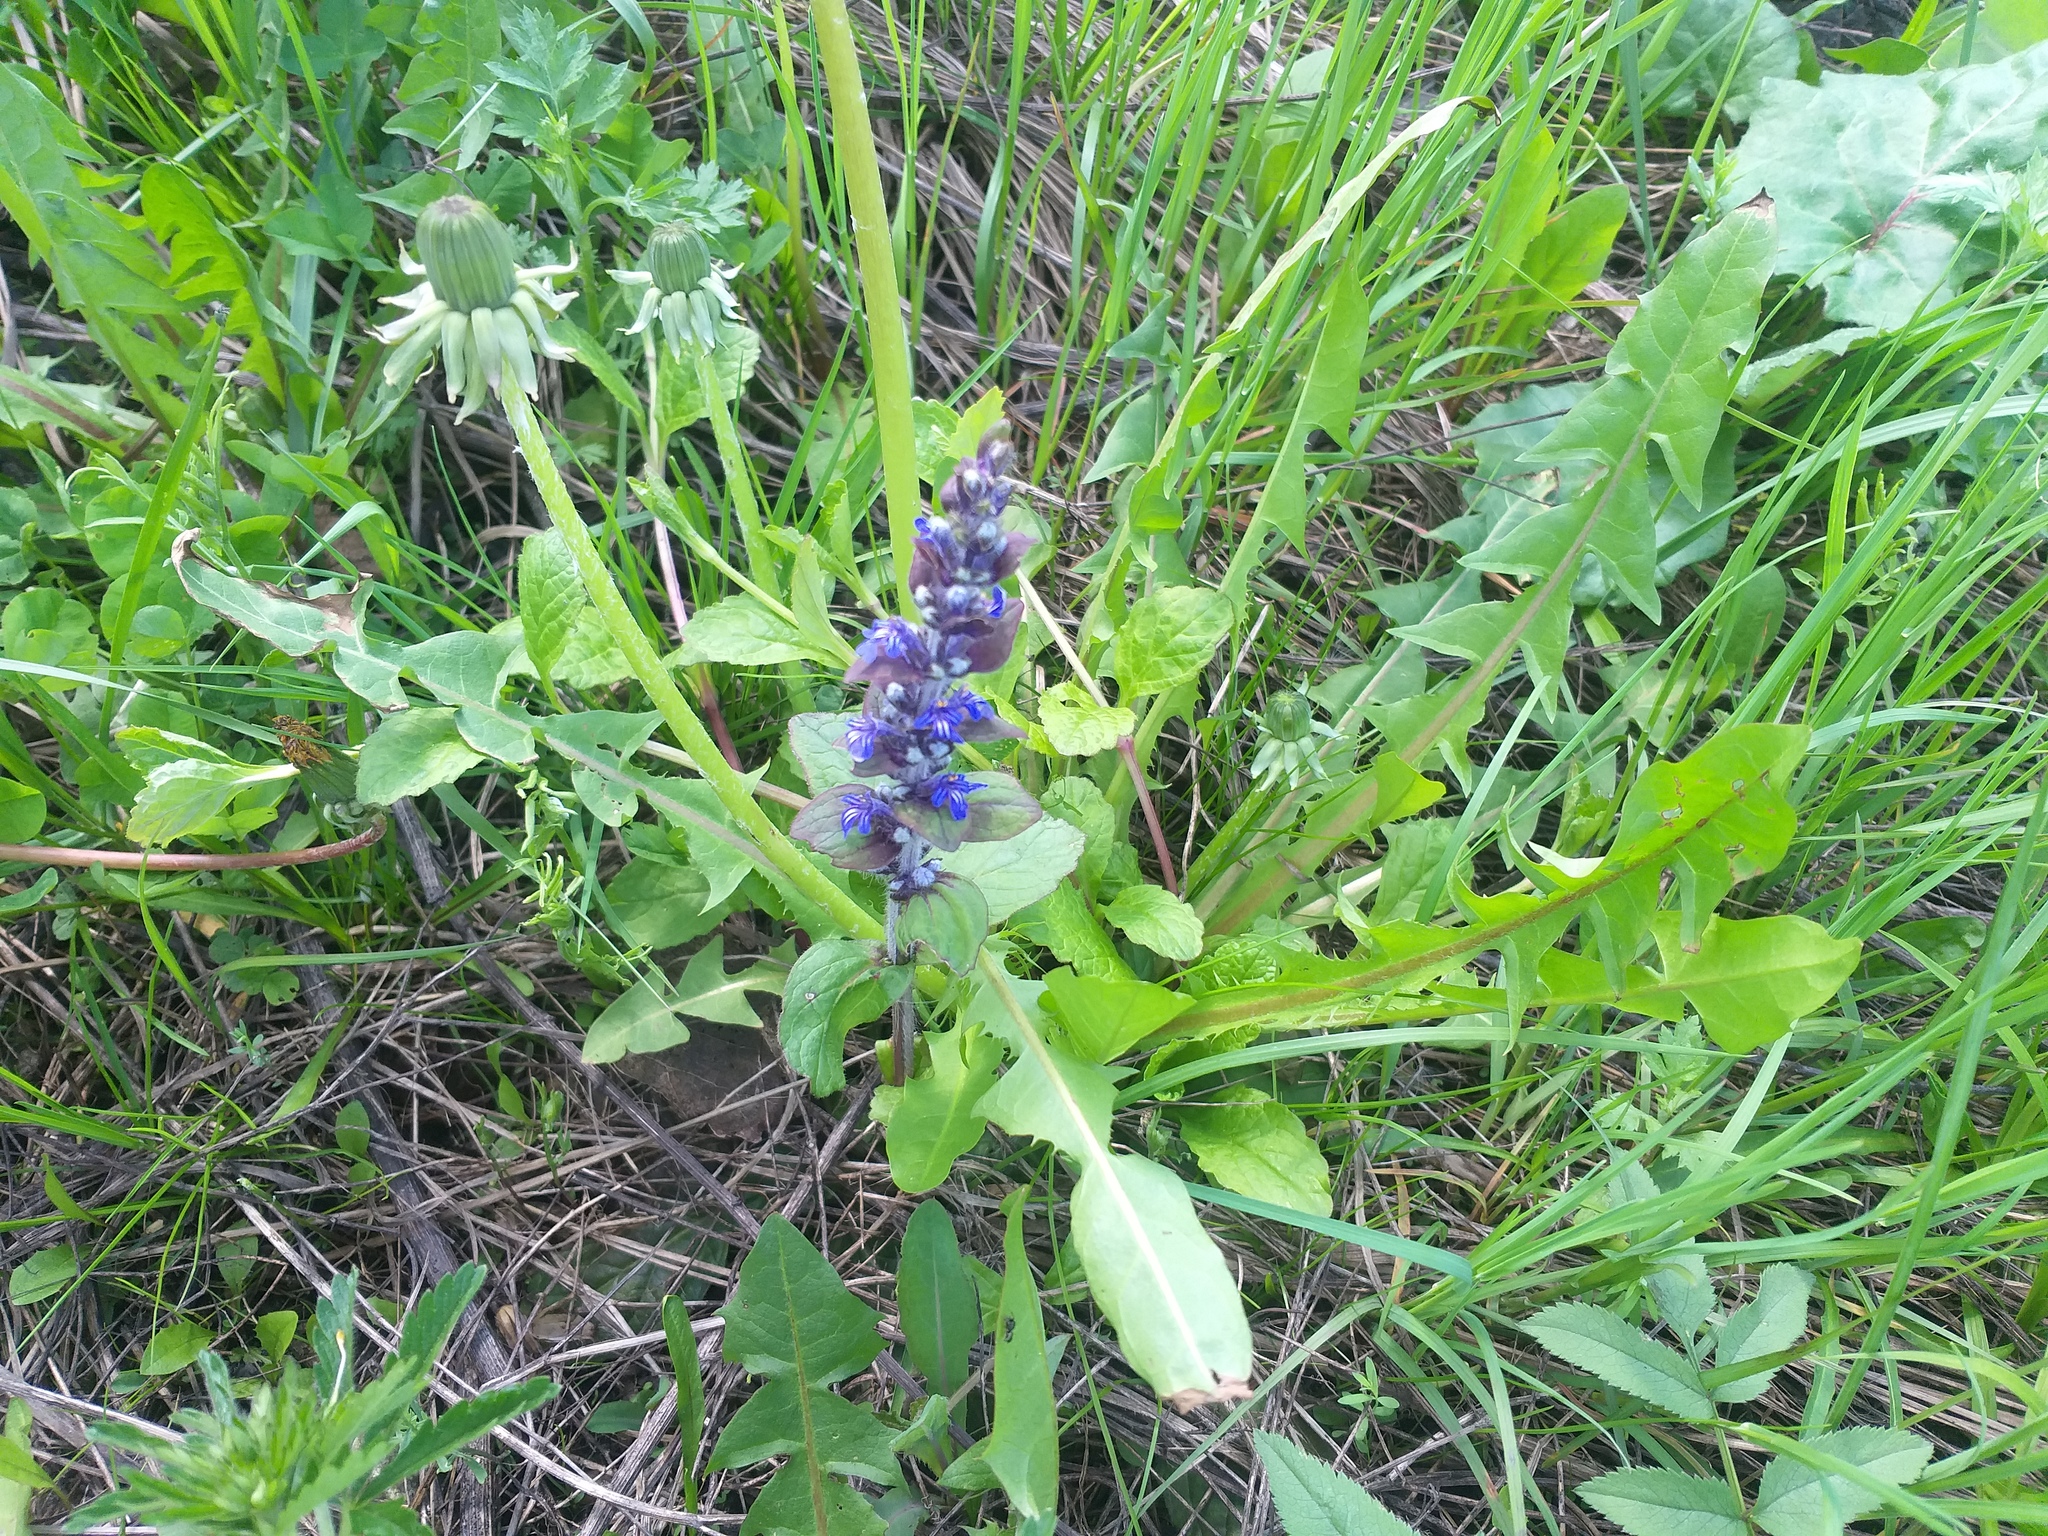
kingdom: Plantae
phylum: Tracheophyta
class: Magnoliopsida
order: Lamiales
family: Lamiaceae
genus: Ajuga
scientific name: Ajuga reptans
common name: Bugle
